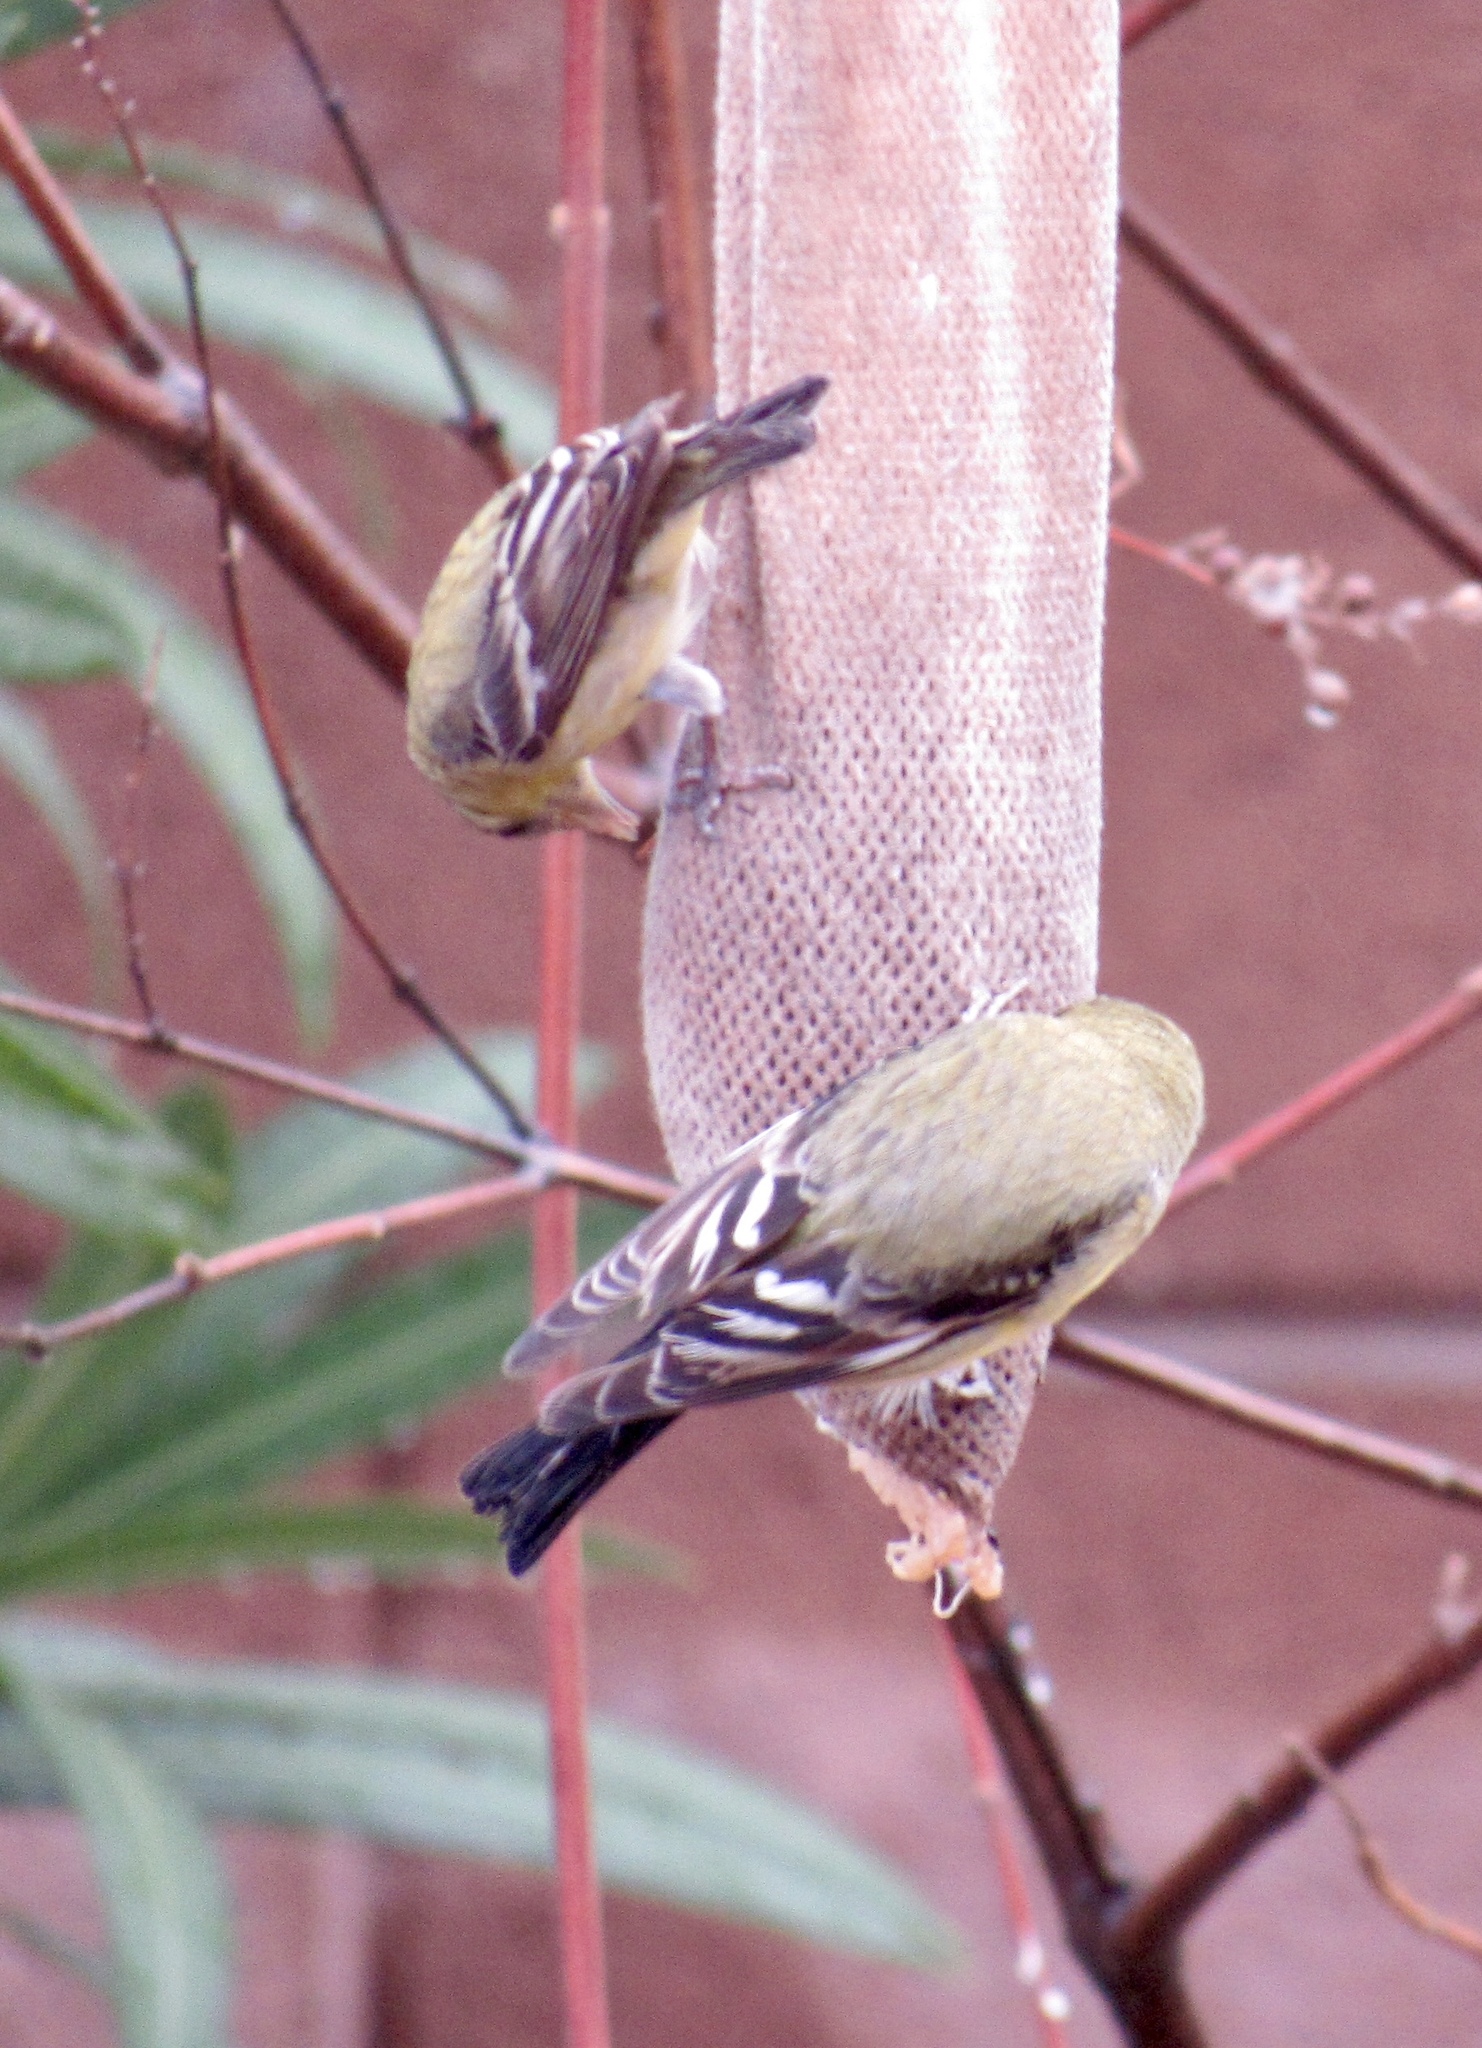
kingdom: Animalia
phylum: Chordata
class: Aves
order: Passeriformes
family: Fringillidae
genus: Spinus
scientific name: Spinus psaltria
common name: Lesser goldfinch
